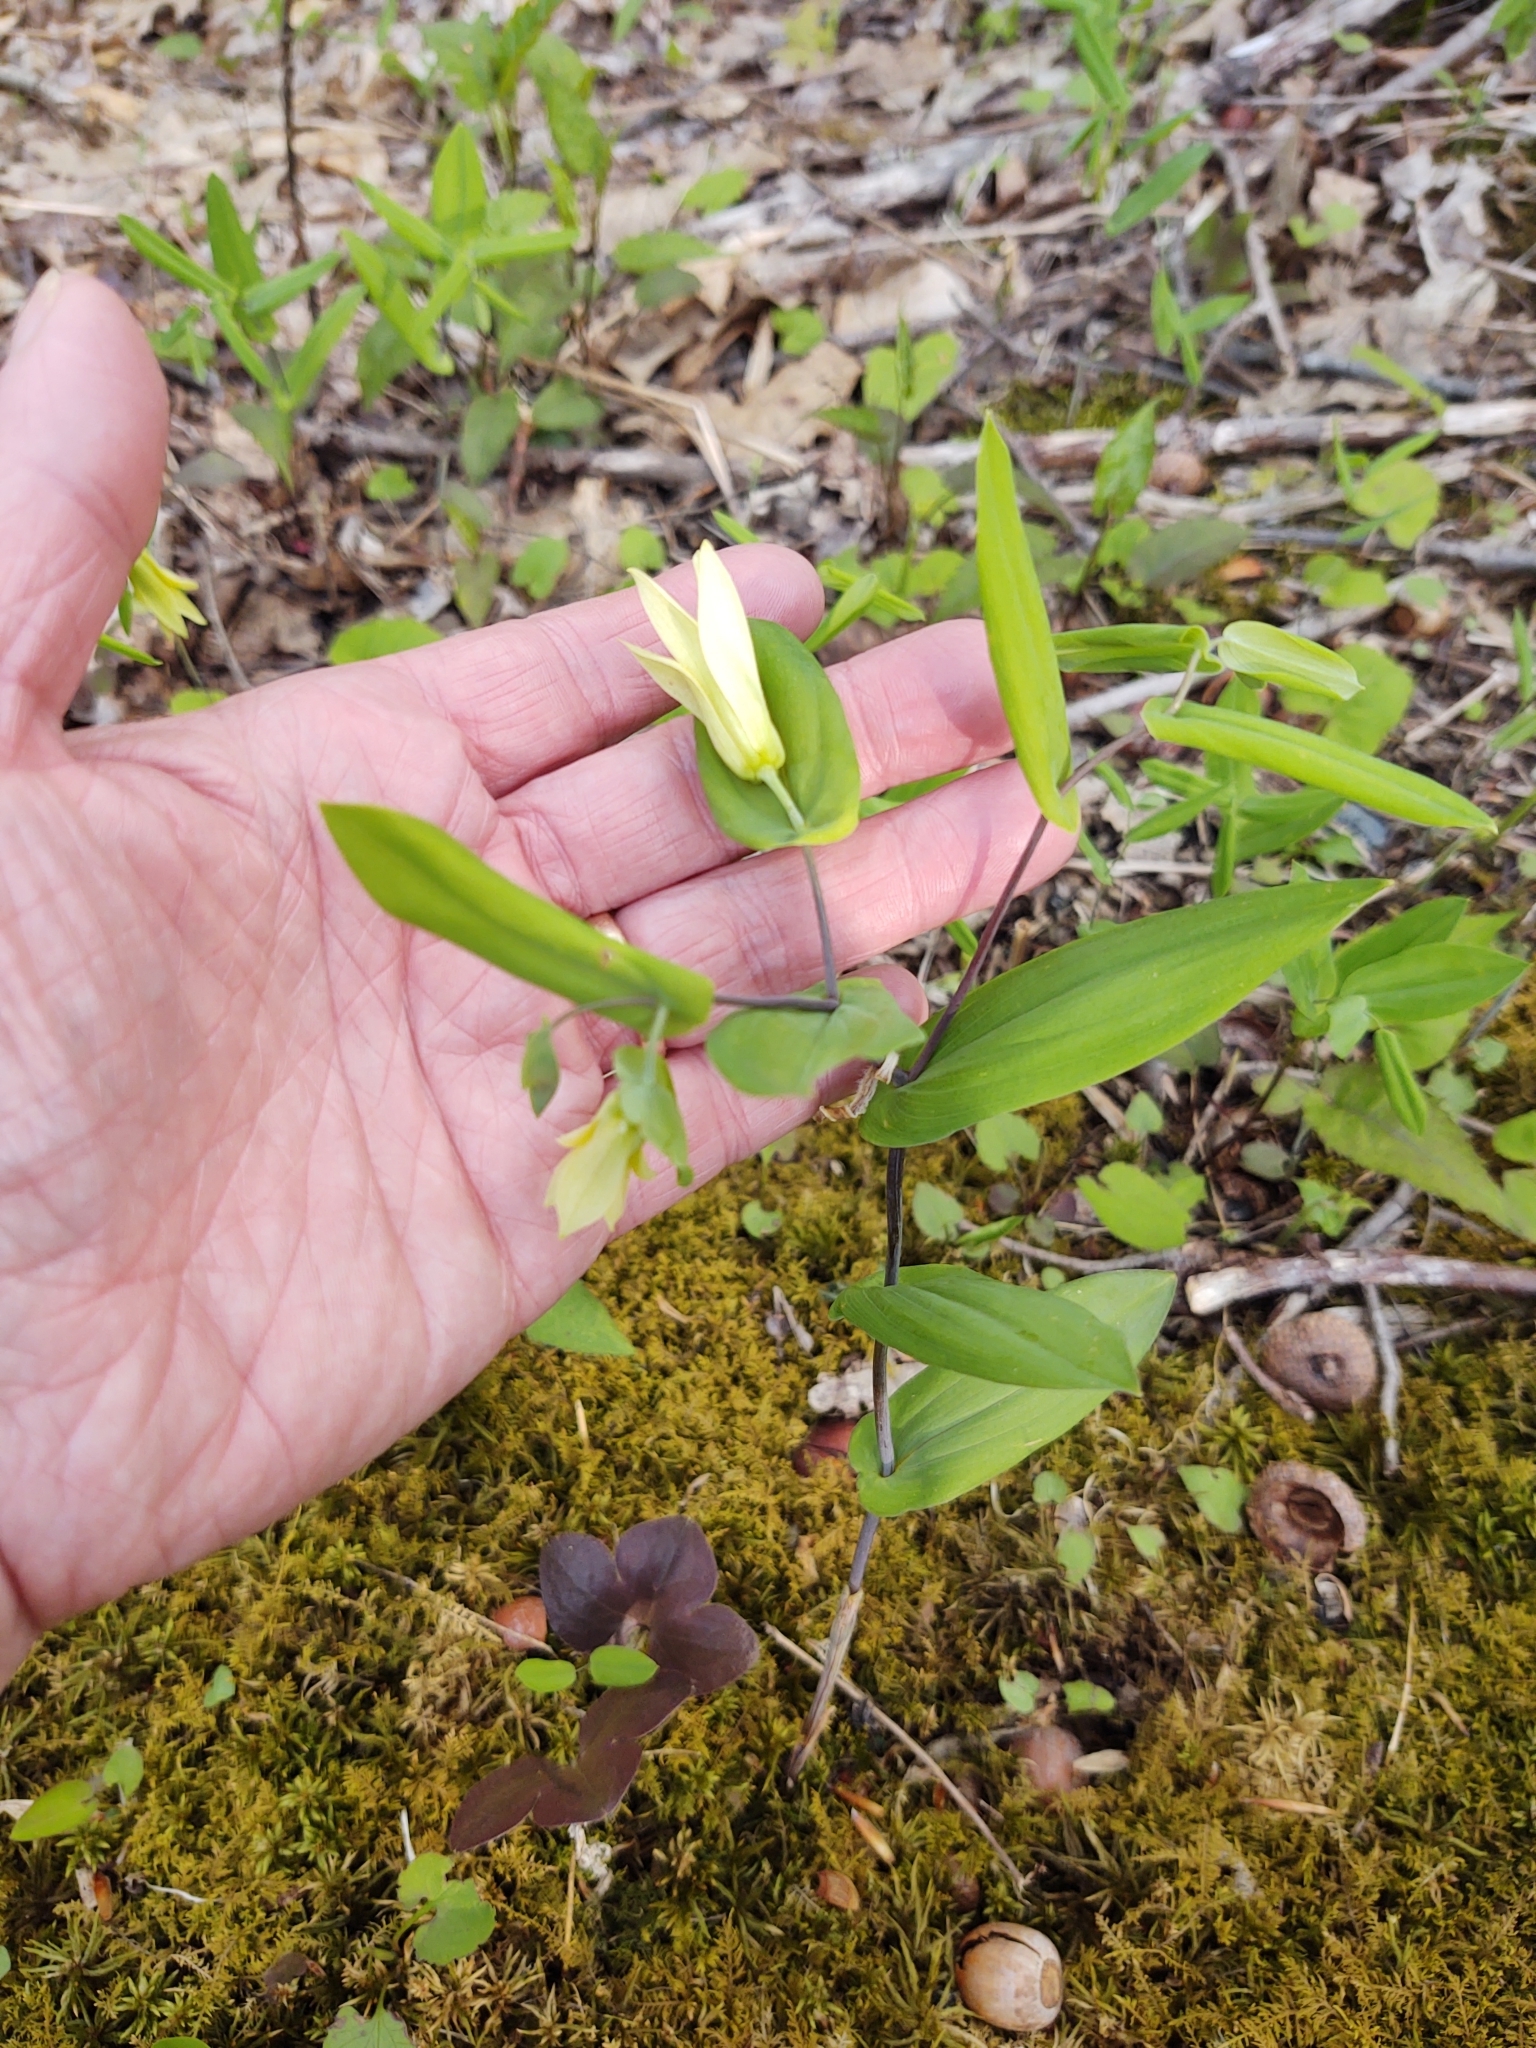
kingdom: Plantae
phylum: Tracheophyta
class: Liliopsida
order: Liliales
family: Colchicaceae
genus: Uvularia
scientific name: Uvularia perfoliata
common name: Perfoliate bellwort
